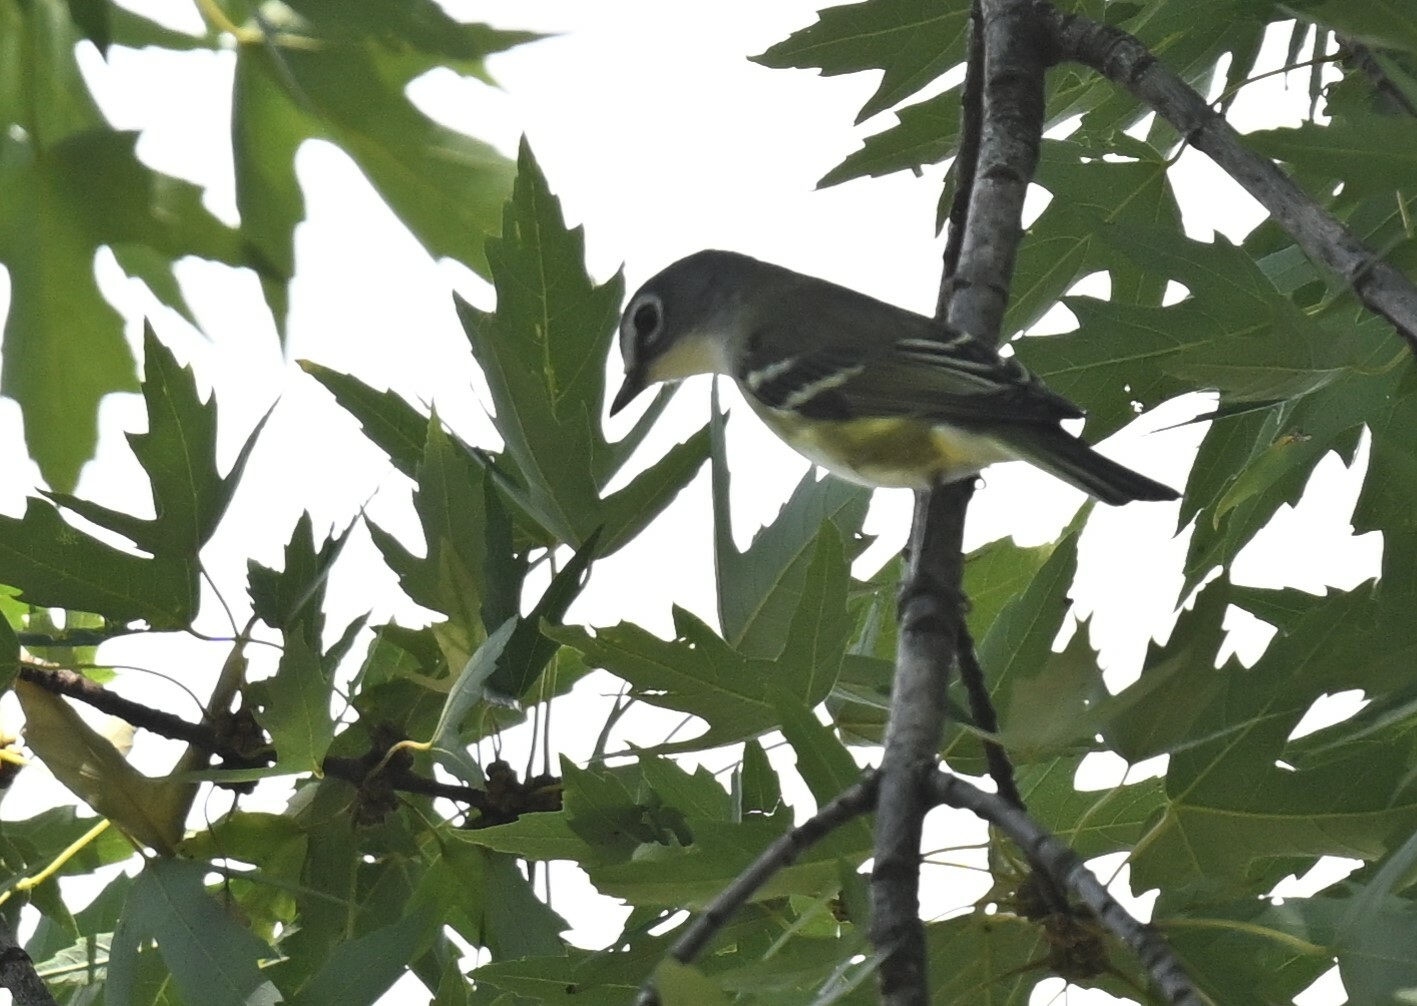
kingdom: Animalia
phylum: Chordata
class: Aves
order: Passeriformes
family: Vireonidae
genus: Vireo
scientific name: Vireo solitarius
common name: Blue-headed vireo
